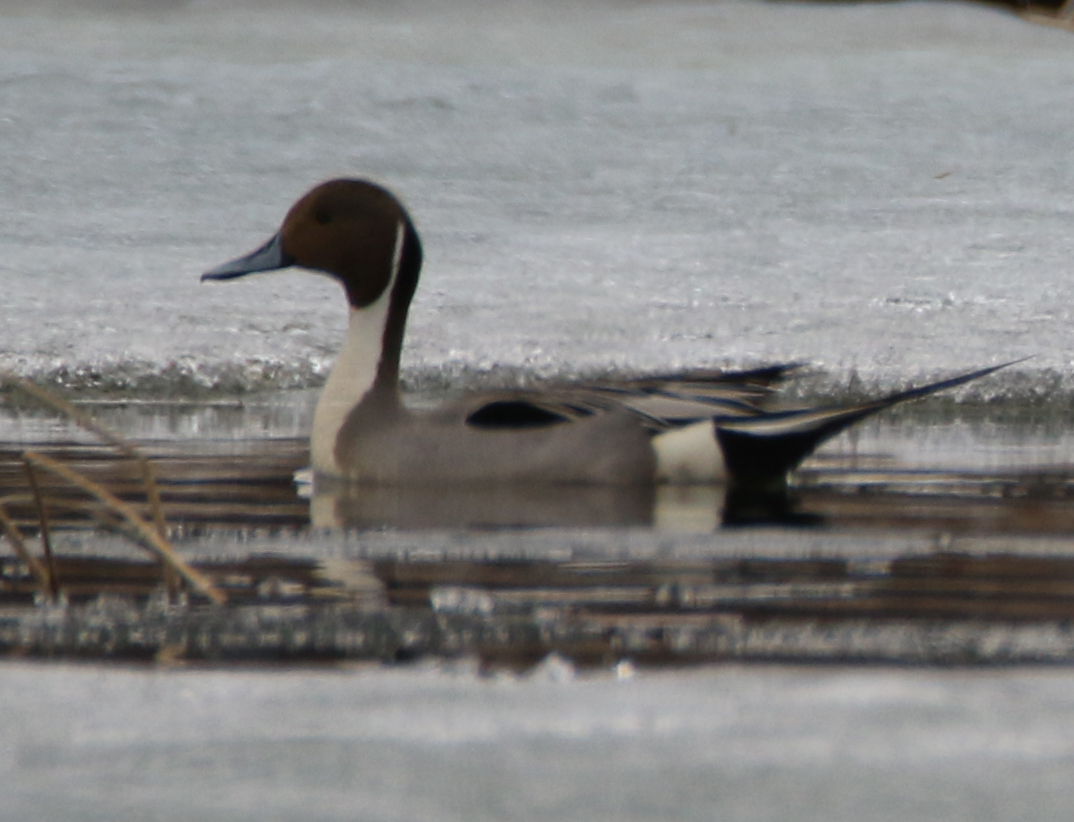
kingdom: Animalia
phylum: Chordata
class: Aves
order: Anseriformes
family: Anatidae
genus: Anas
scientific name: Anas acuta
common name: Northern pintail
